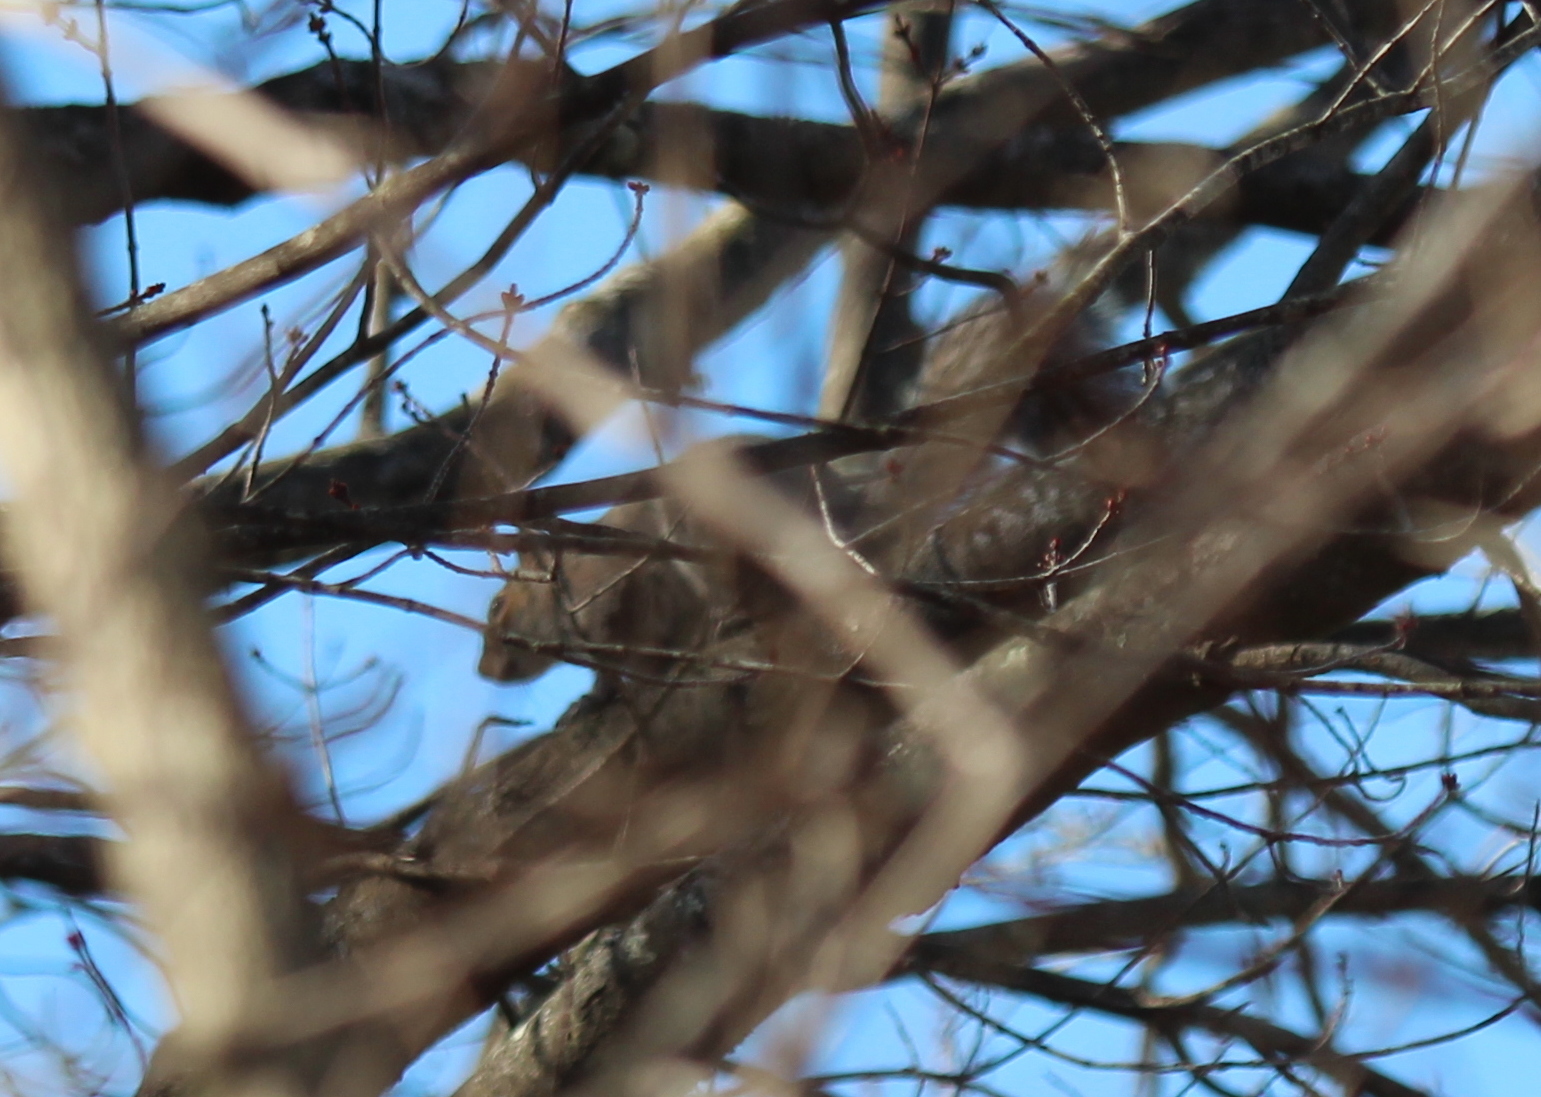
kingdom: Animalia
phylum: Chordata
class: Mammalia
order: Rodentia
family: Sciuridae
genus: Sciurus
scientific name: Sciurus carolinensis
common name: Eastern gray squirrel
